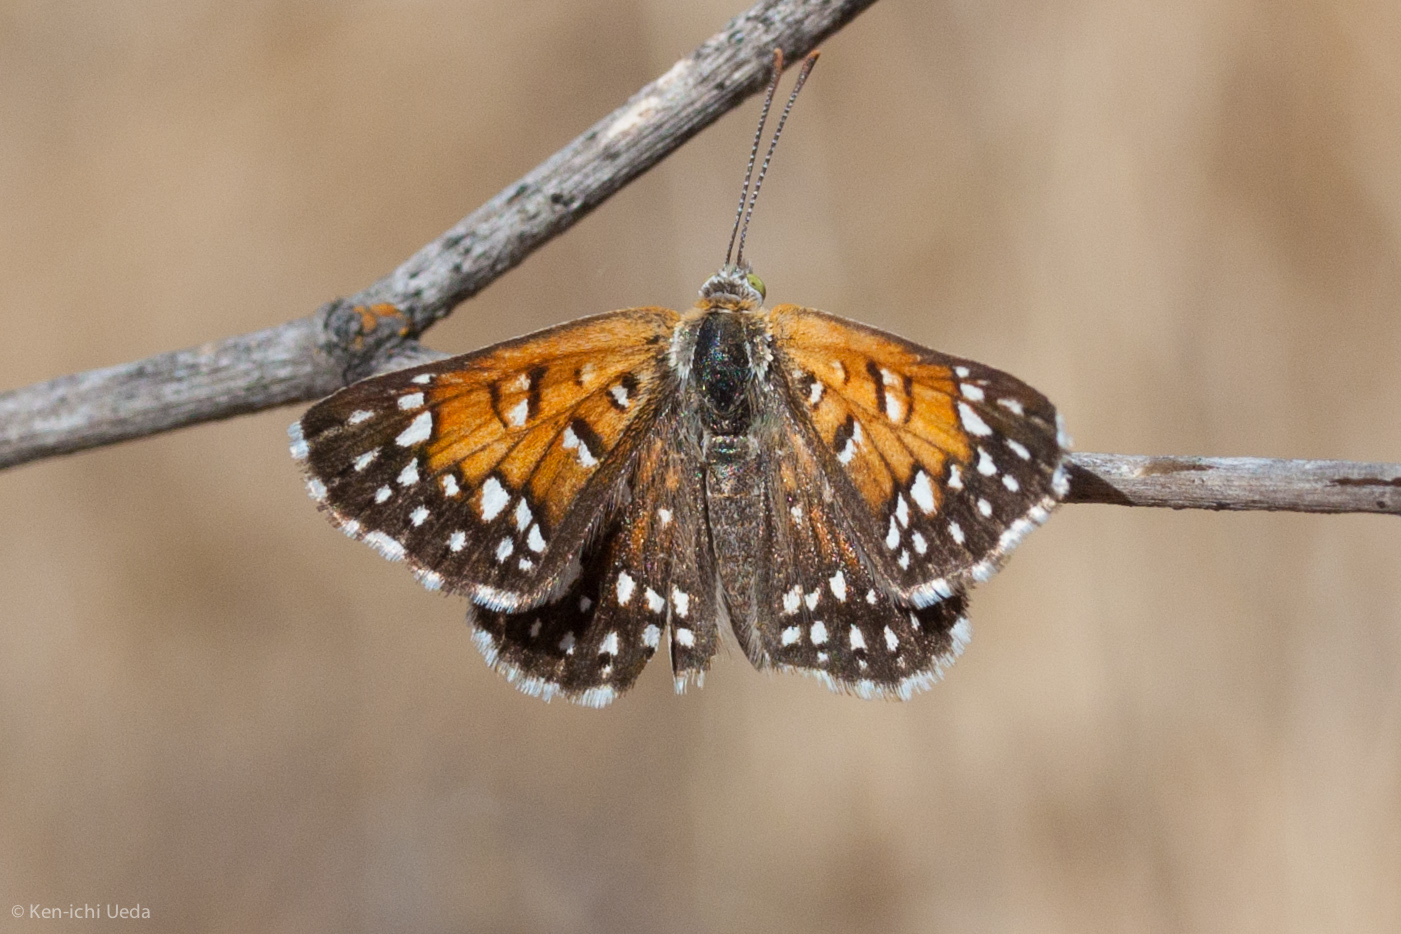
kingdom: Animalia
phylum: Arthropoda
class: Insecta
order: Lepidoptera
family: Riodinidae
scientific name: Riodinidae
